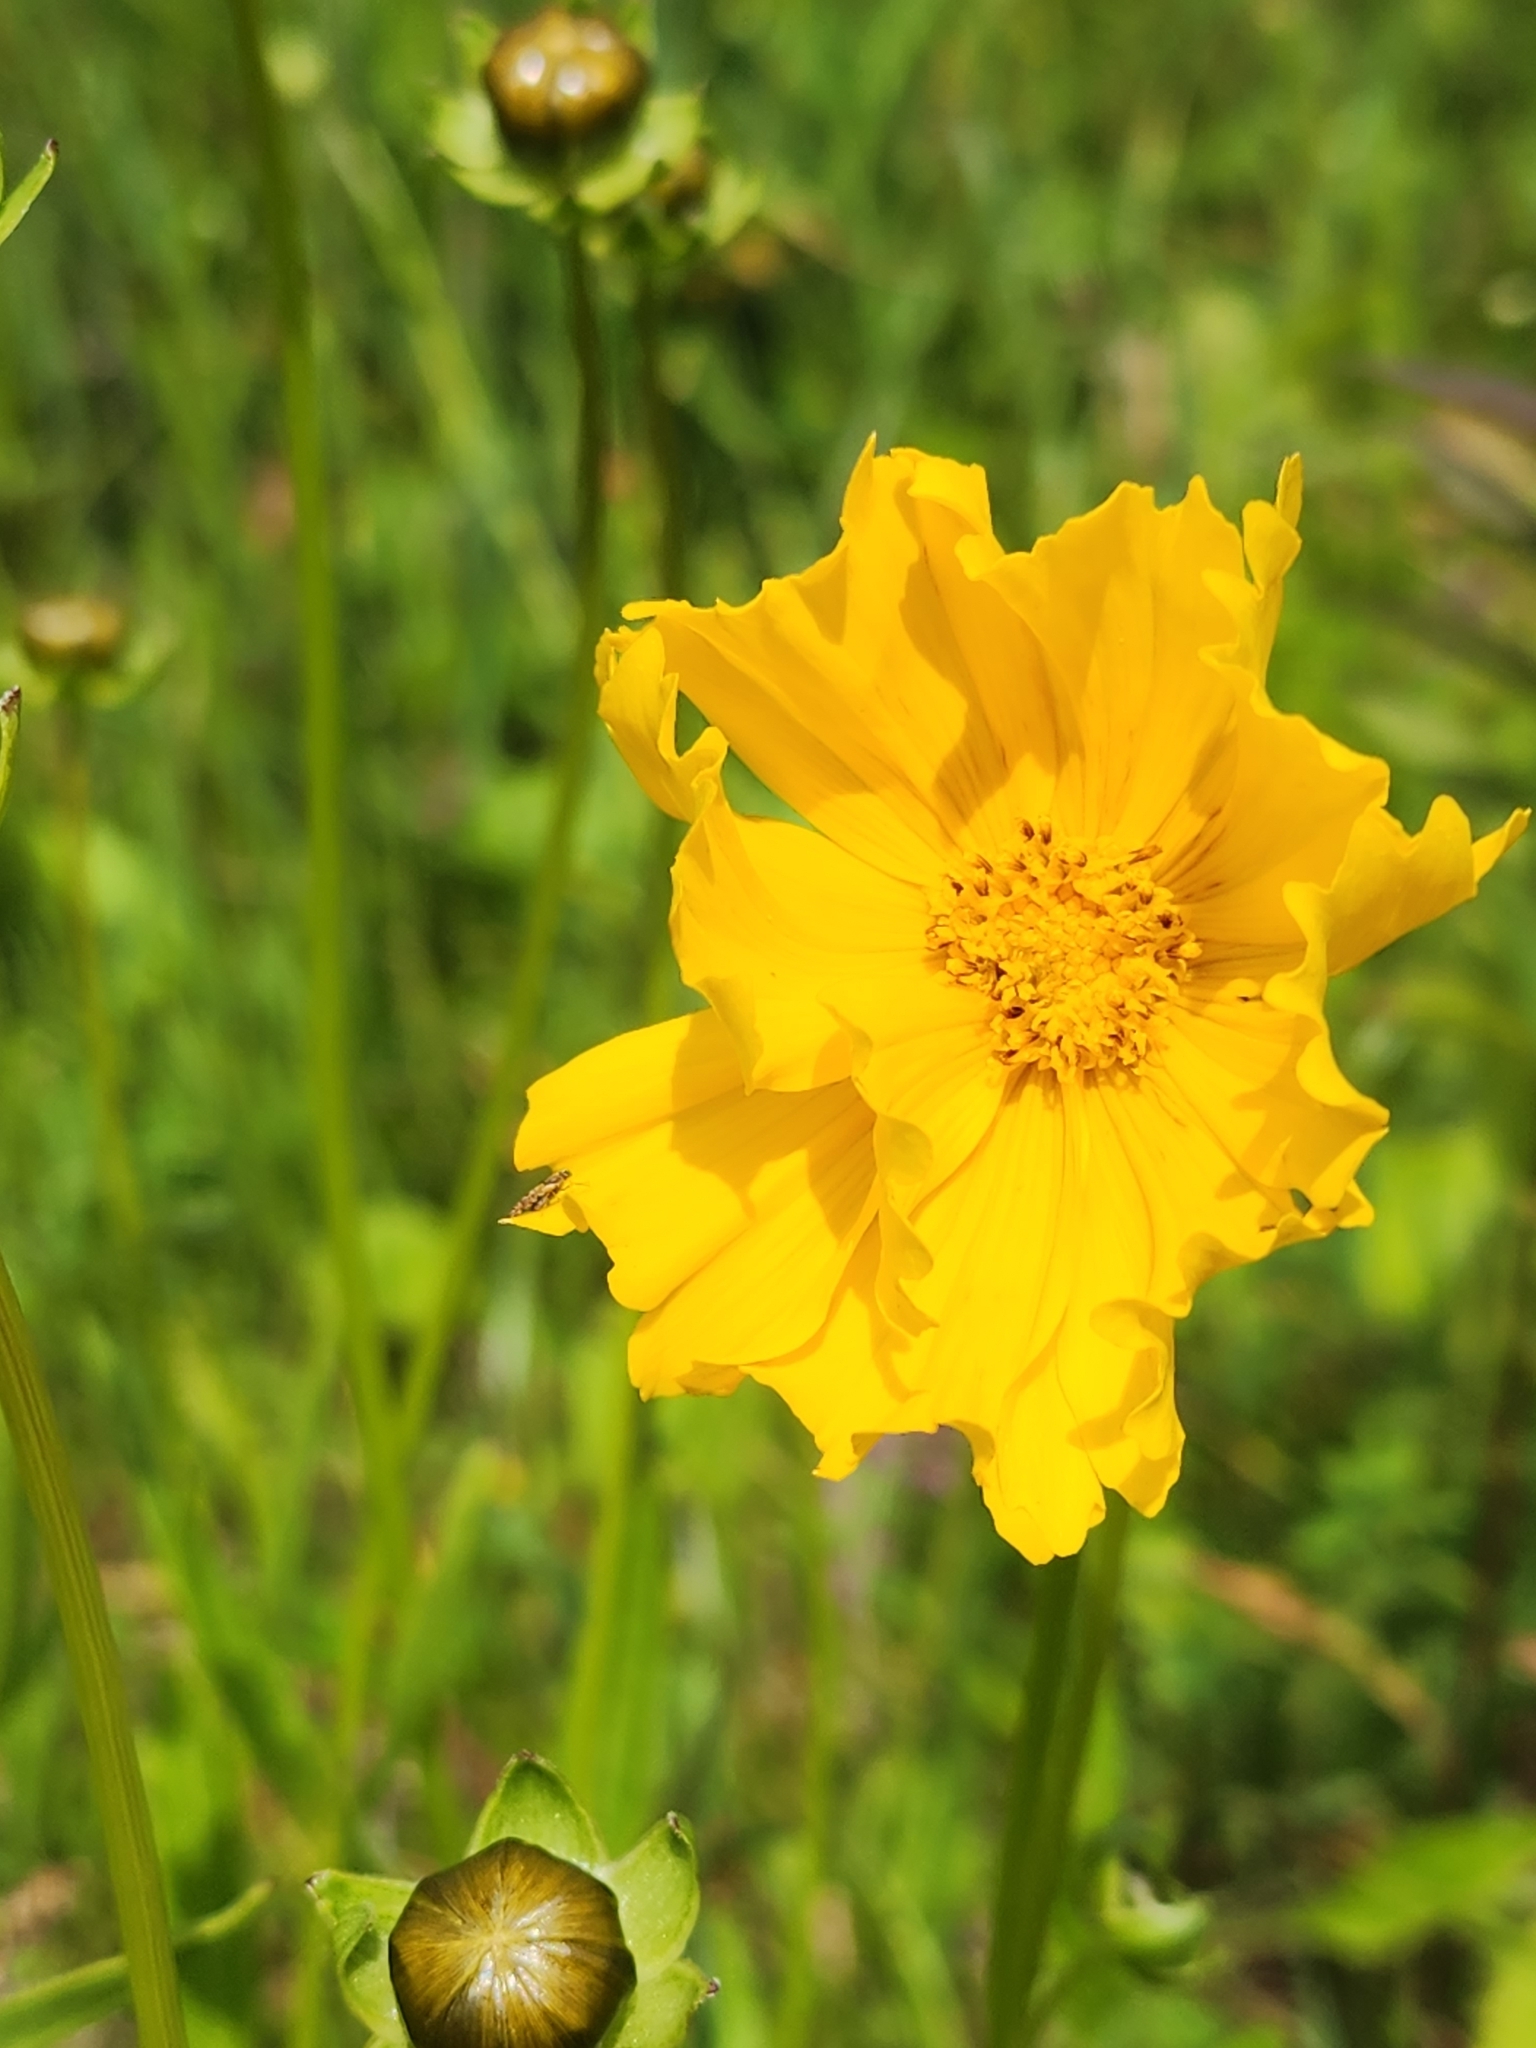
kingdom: Plantae
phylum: Tracheophyta
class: Magnoliopsida
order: Asterales
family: Asteraceae
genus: Coreopsis
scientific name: Coreopsis lanceolata
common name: Garden coreopsis
